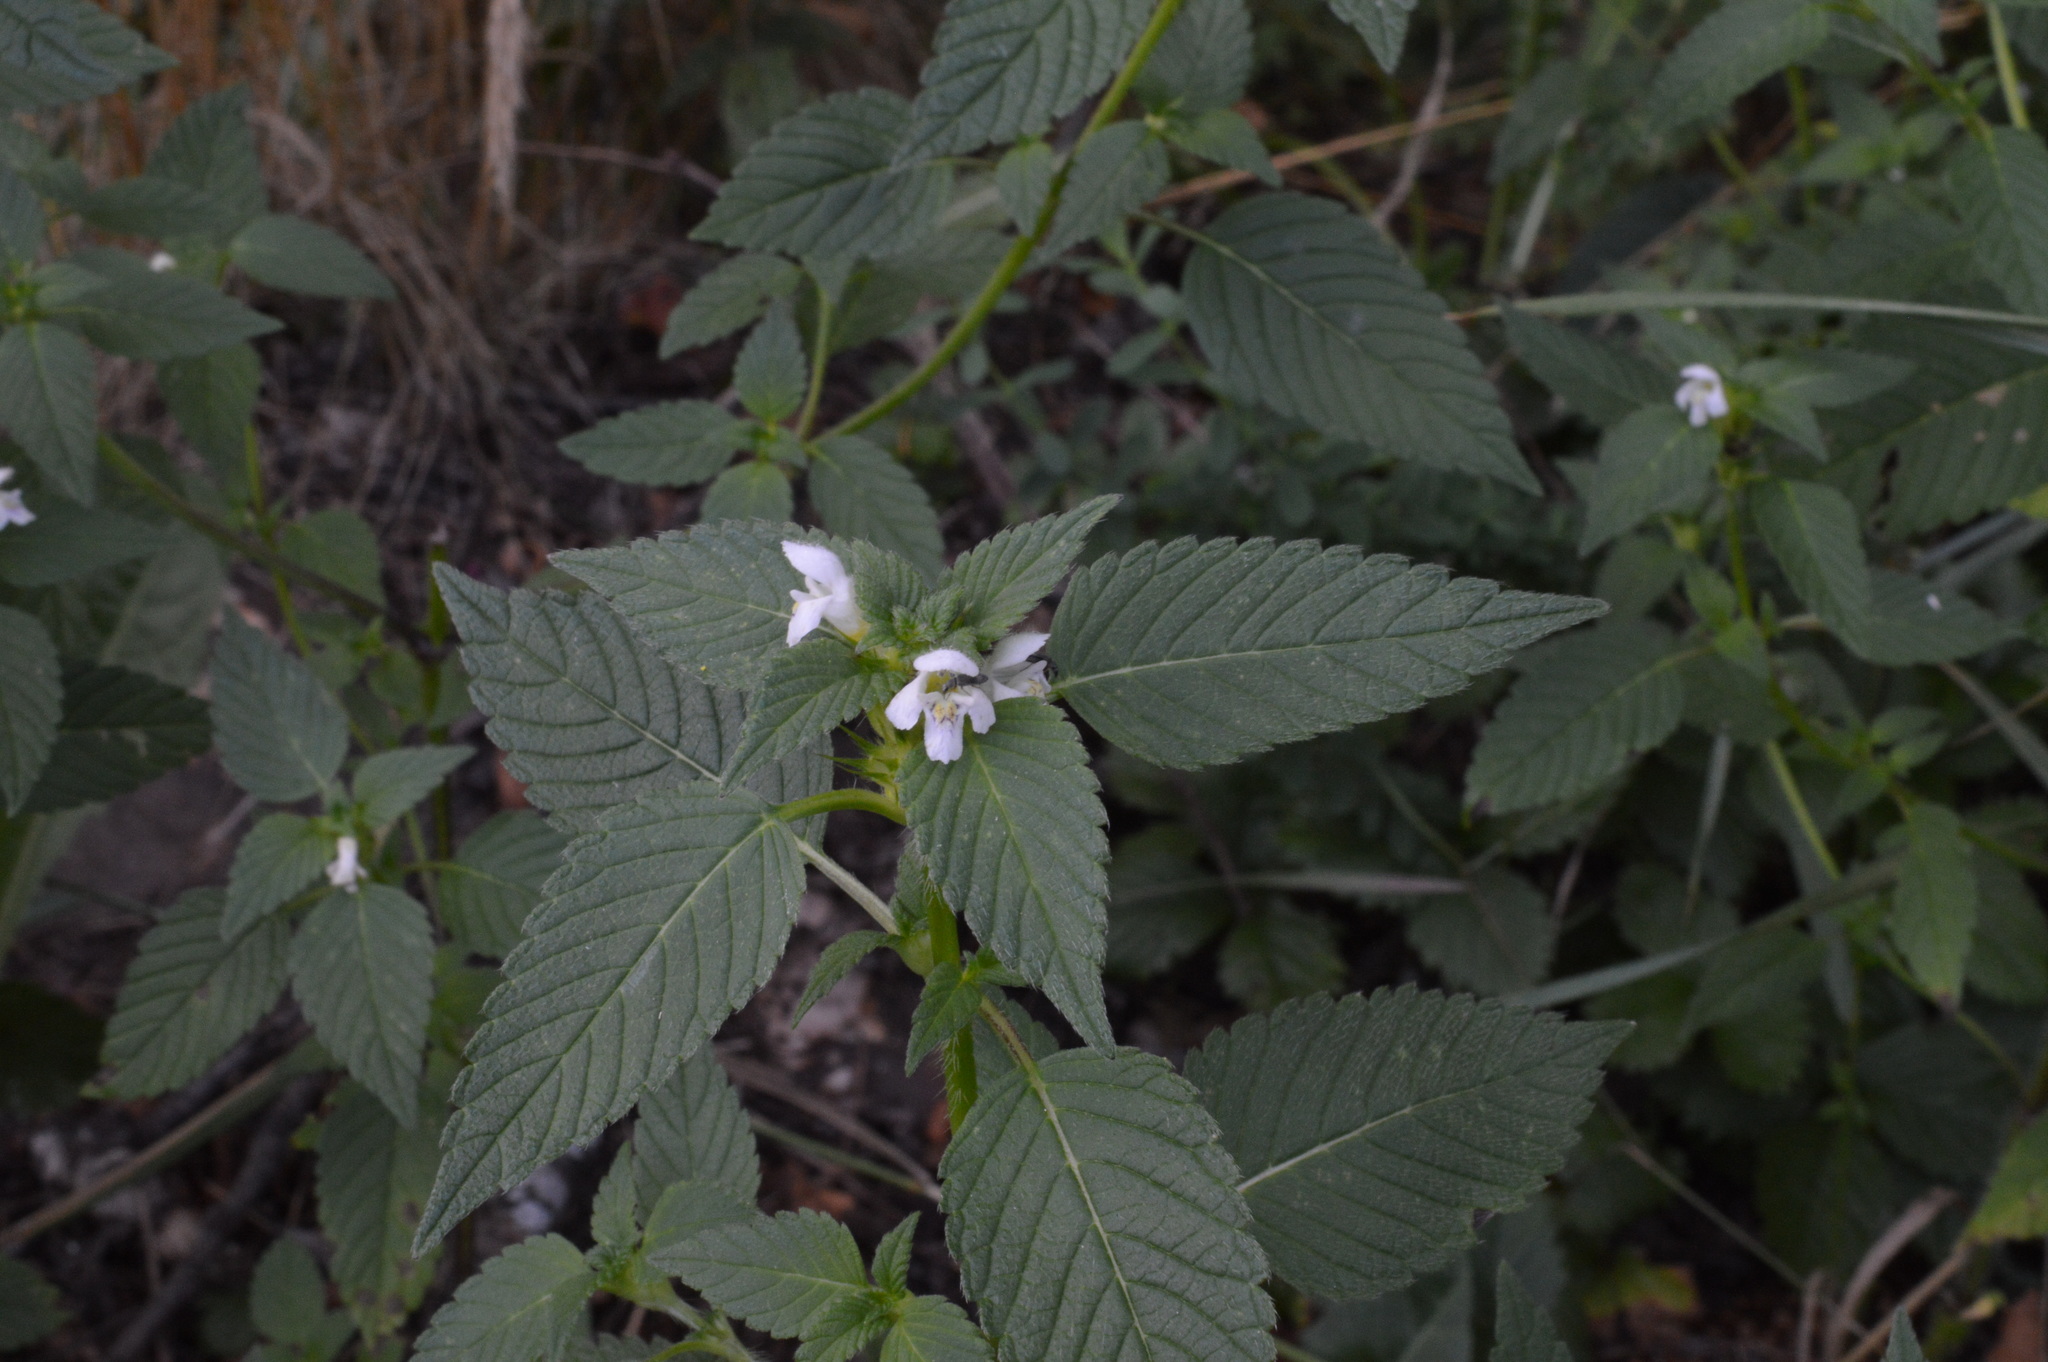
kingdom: Plantae
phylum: Tracheophyta
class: Magnoliopsida
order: Lamiales
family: Lamiaceae
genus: Galeopsis
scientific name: Galeopsis tetrahit
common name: Common hemp-nettle
